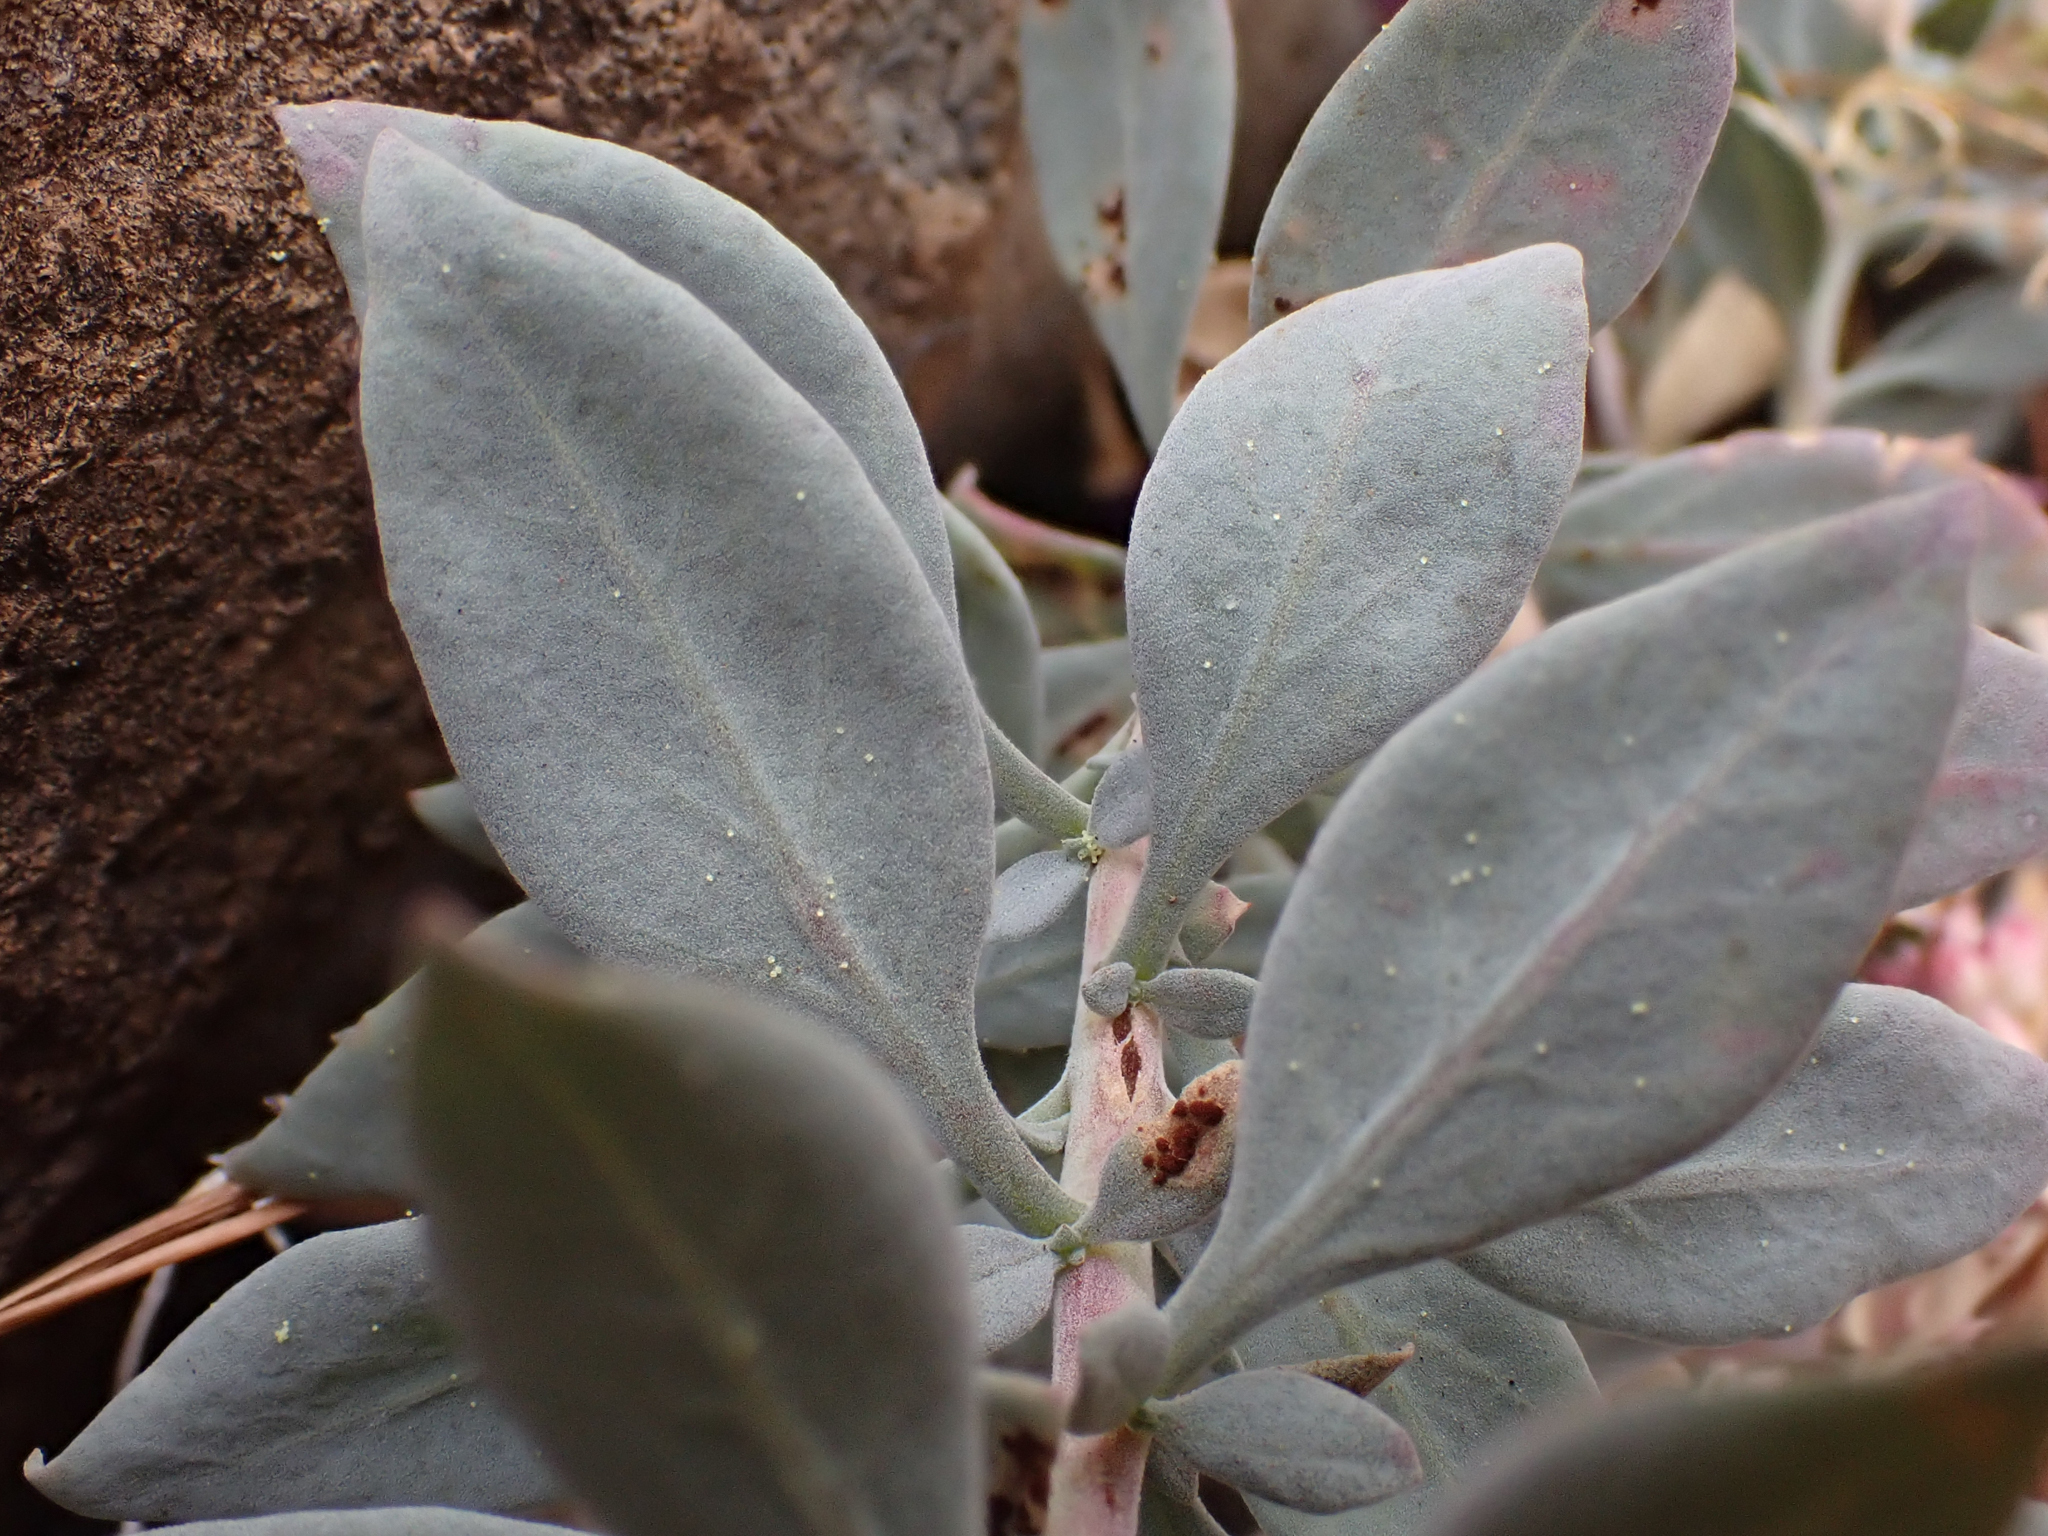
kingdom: Plantae
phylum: Tracheophyta
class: Magnoliopsida
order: Myrtales
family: Onagraceae
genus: Epilobium
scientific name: Epilobium rigidum
